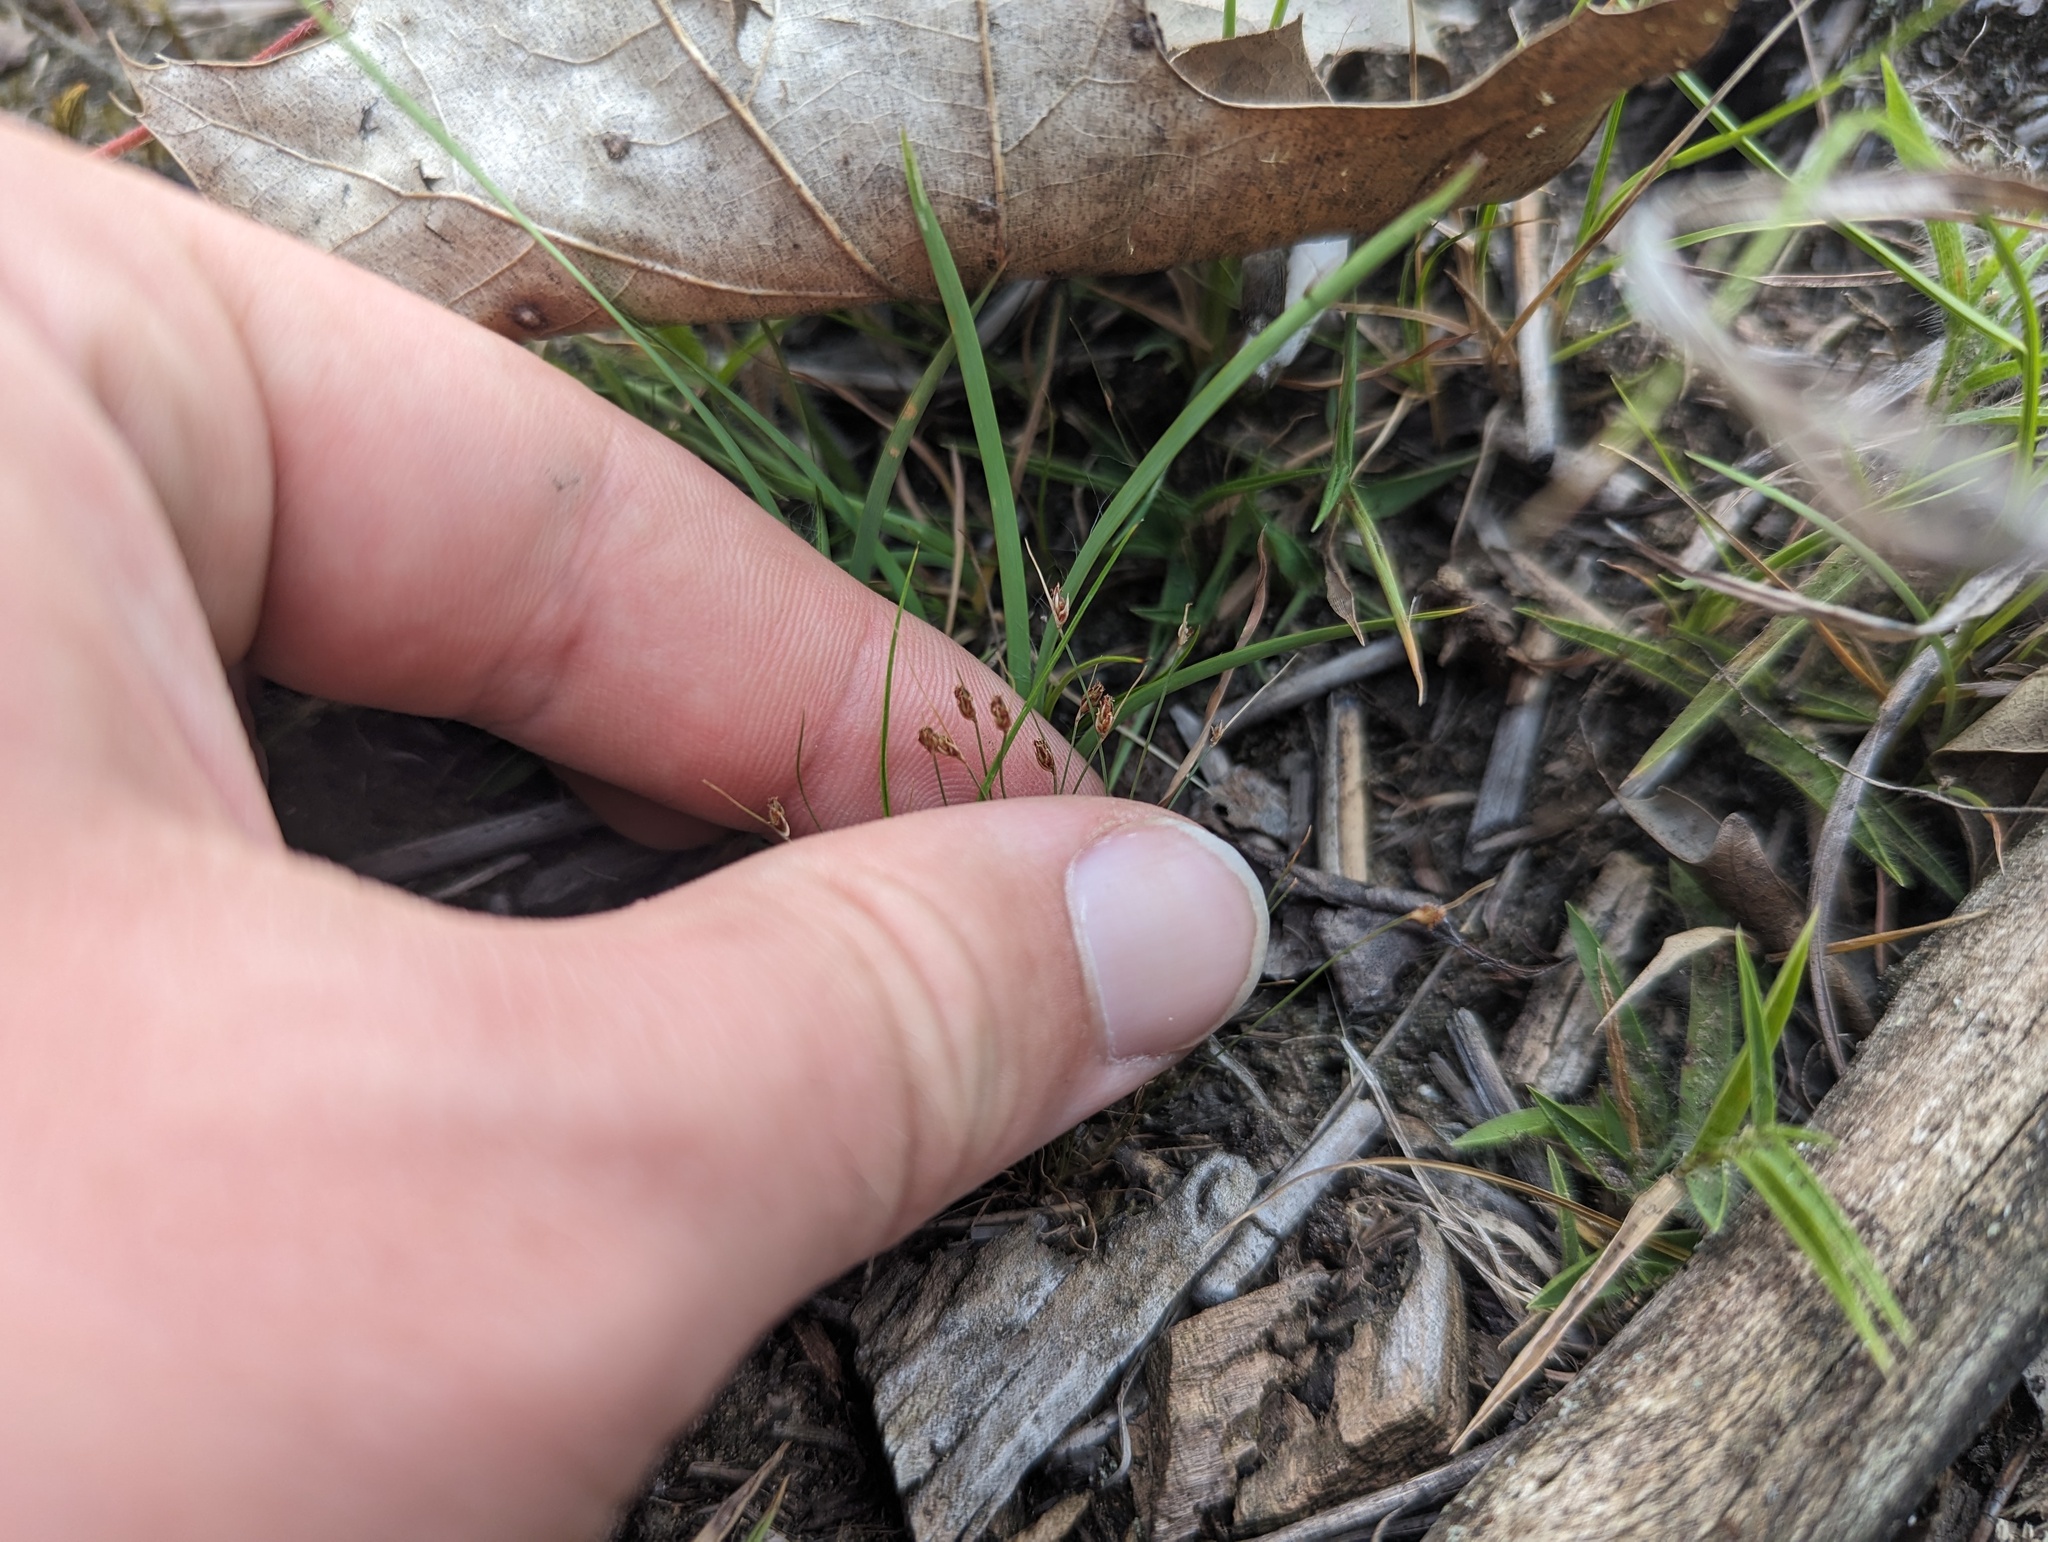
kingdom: Plantae
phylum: Tracheophyta
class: Liliopsida
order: Poales
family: Cyperaceae
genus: Bulbostylis
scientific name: Bulbostylis capillaris
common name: Densetuft hairsedge
